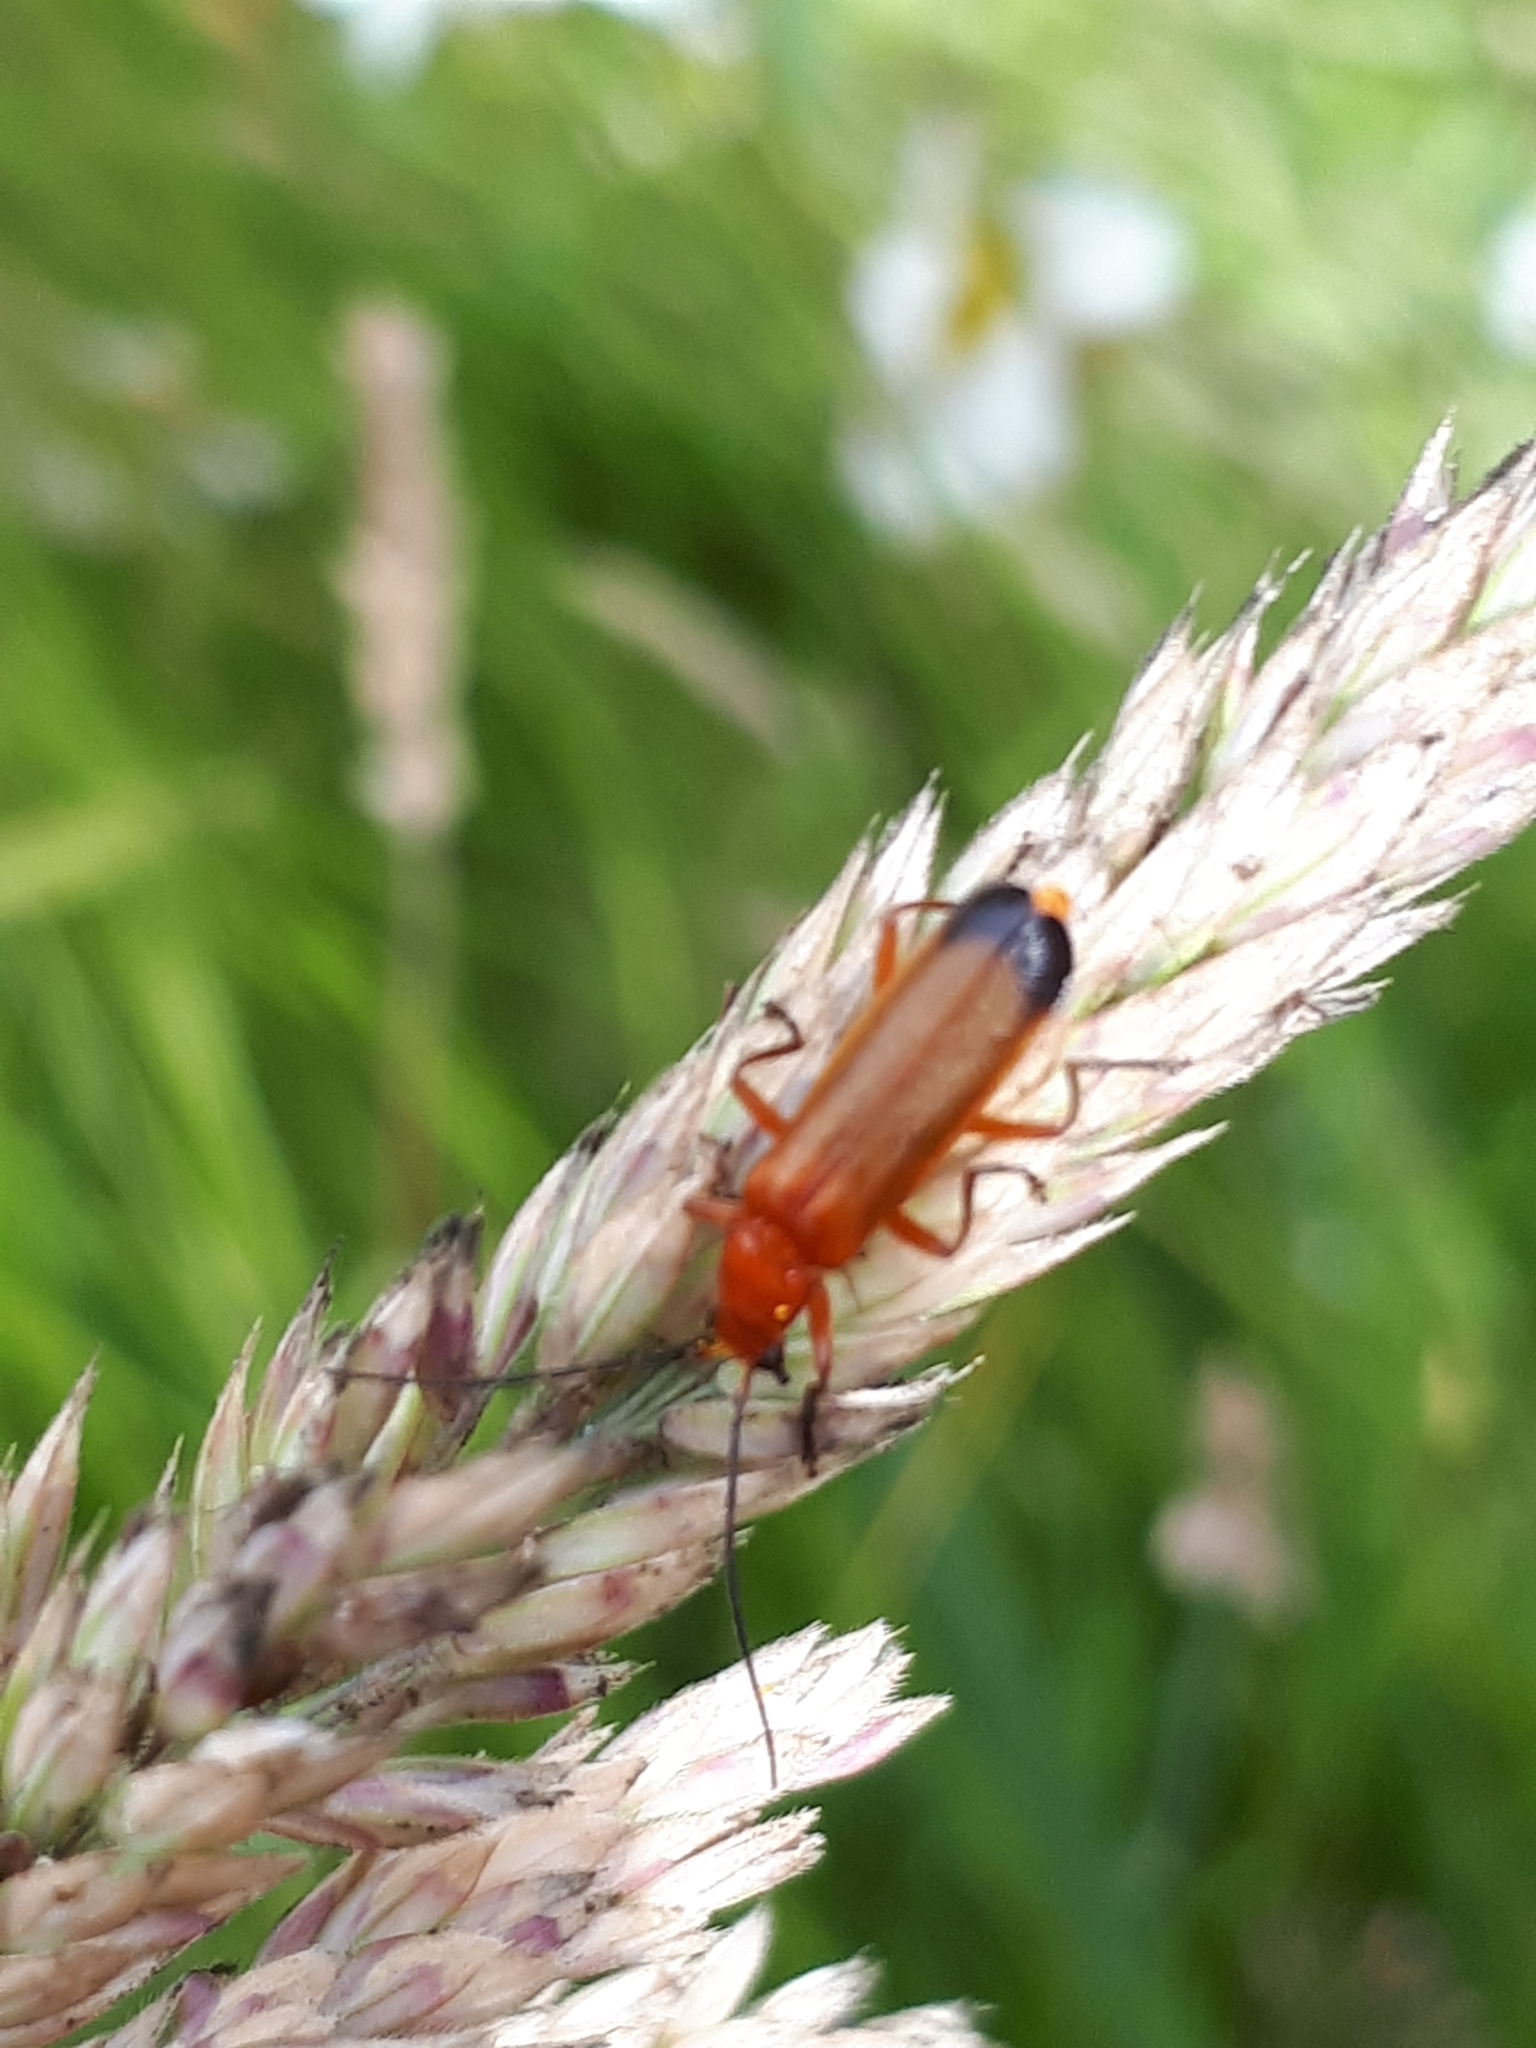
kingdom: Animalia
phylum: Arthropoda
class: Insecta
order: Coleoptera
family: Cantharidae
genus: Rhagonycha
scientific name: Rhagonycha fulva
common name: Common red soldier beetle
